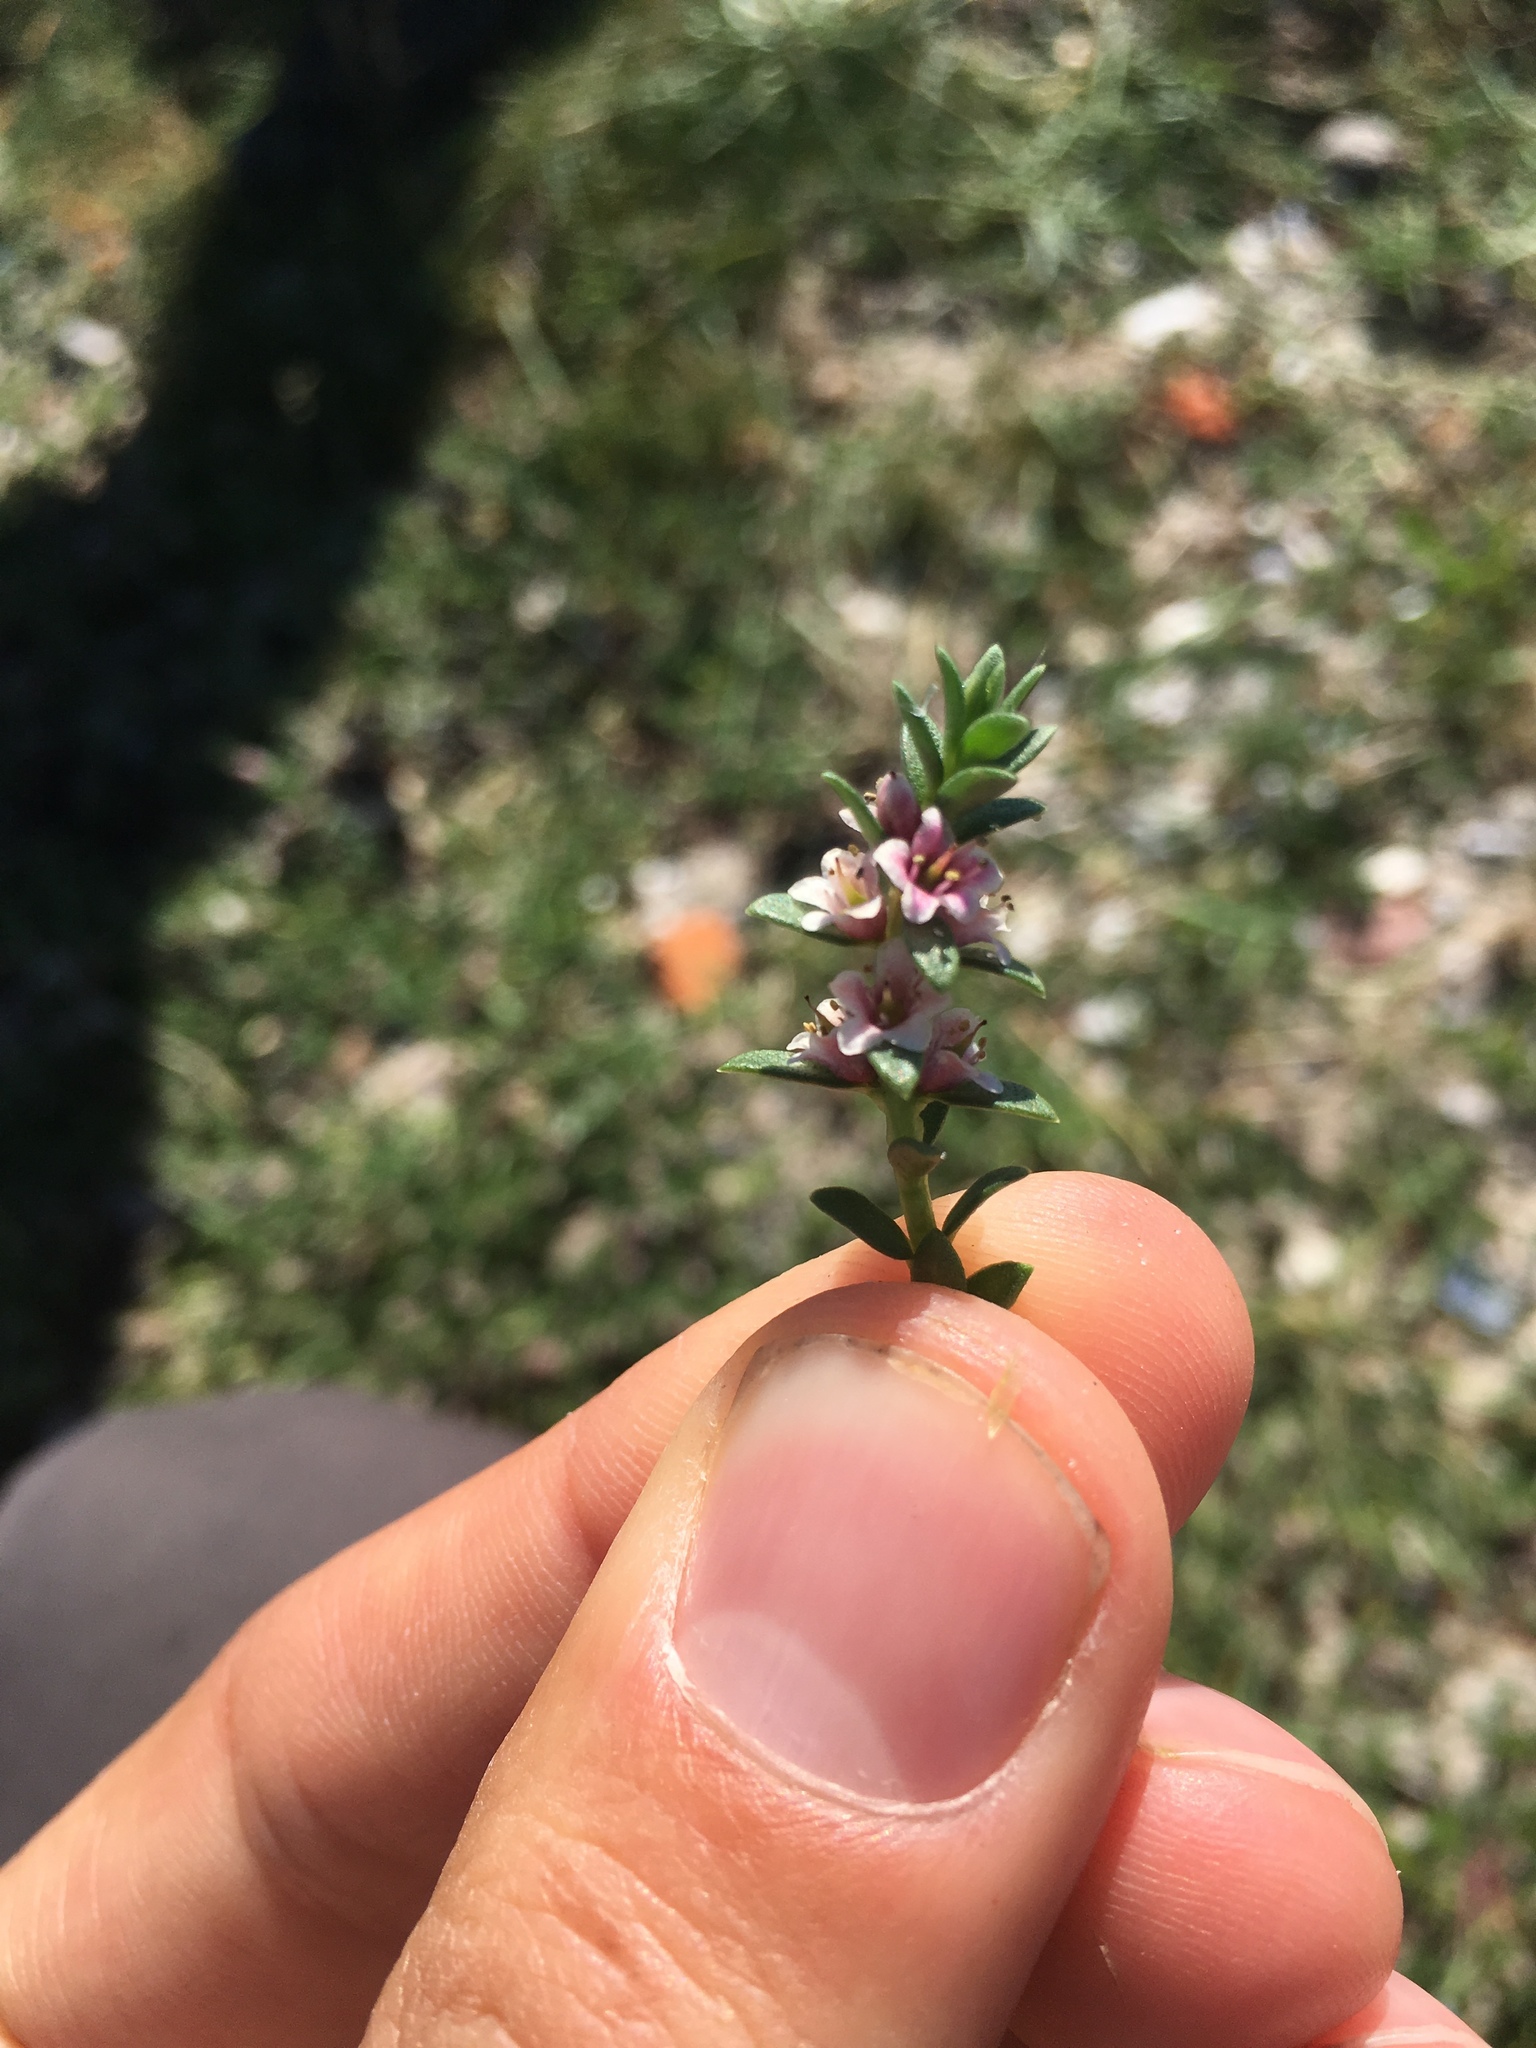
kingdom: Plantae
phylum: Tracheophyta
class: Magnoliopsida
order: Ericales
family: Primulaceae
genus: Lysimachia
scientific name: Lysimachia maritima
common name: Sea milkwort
